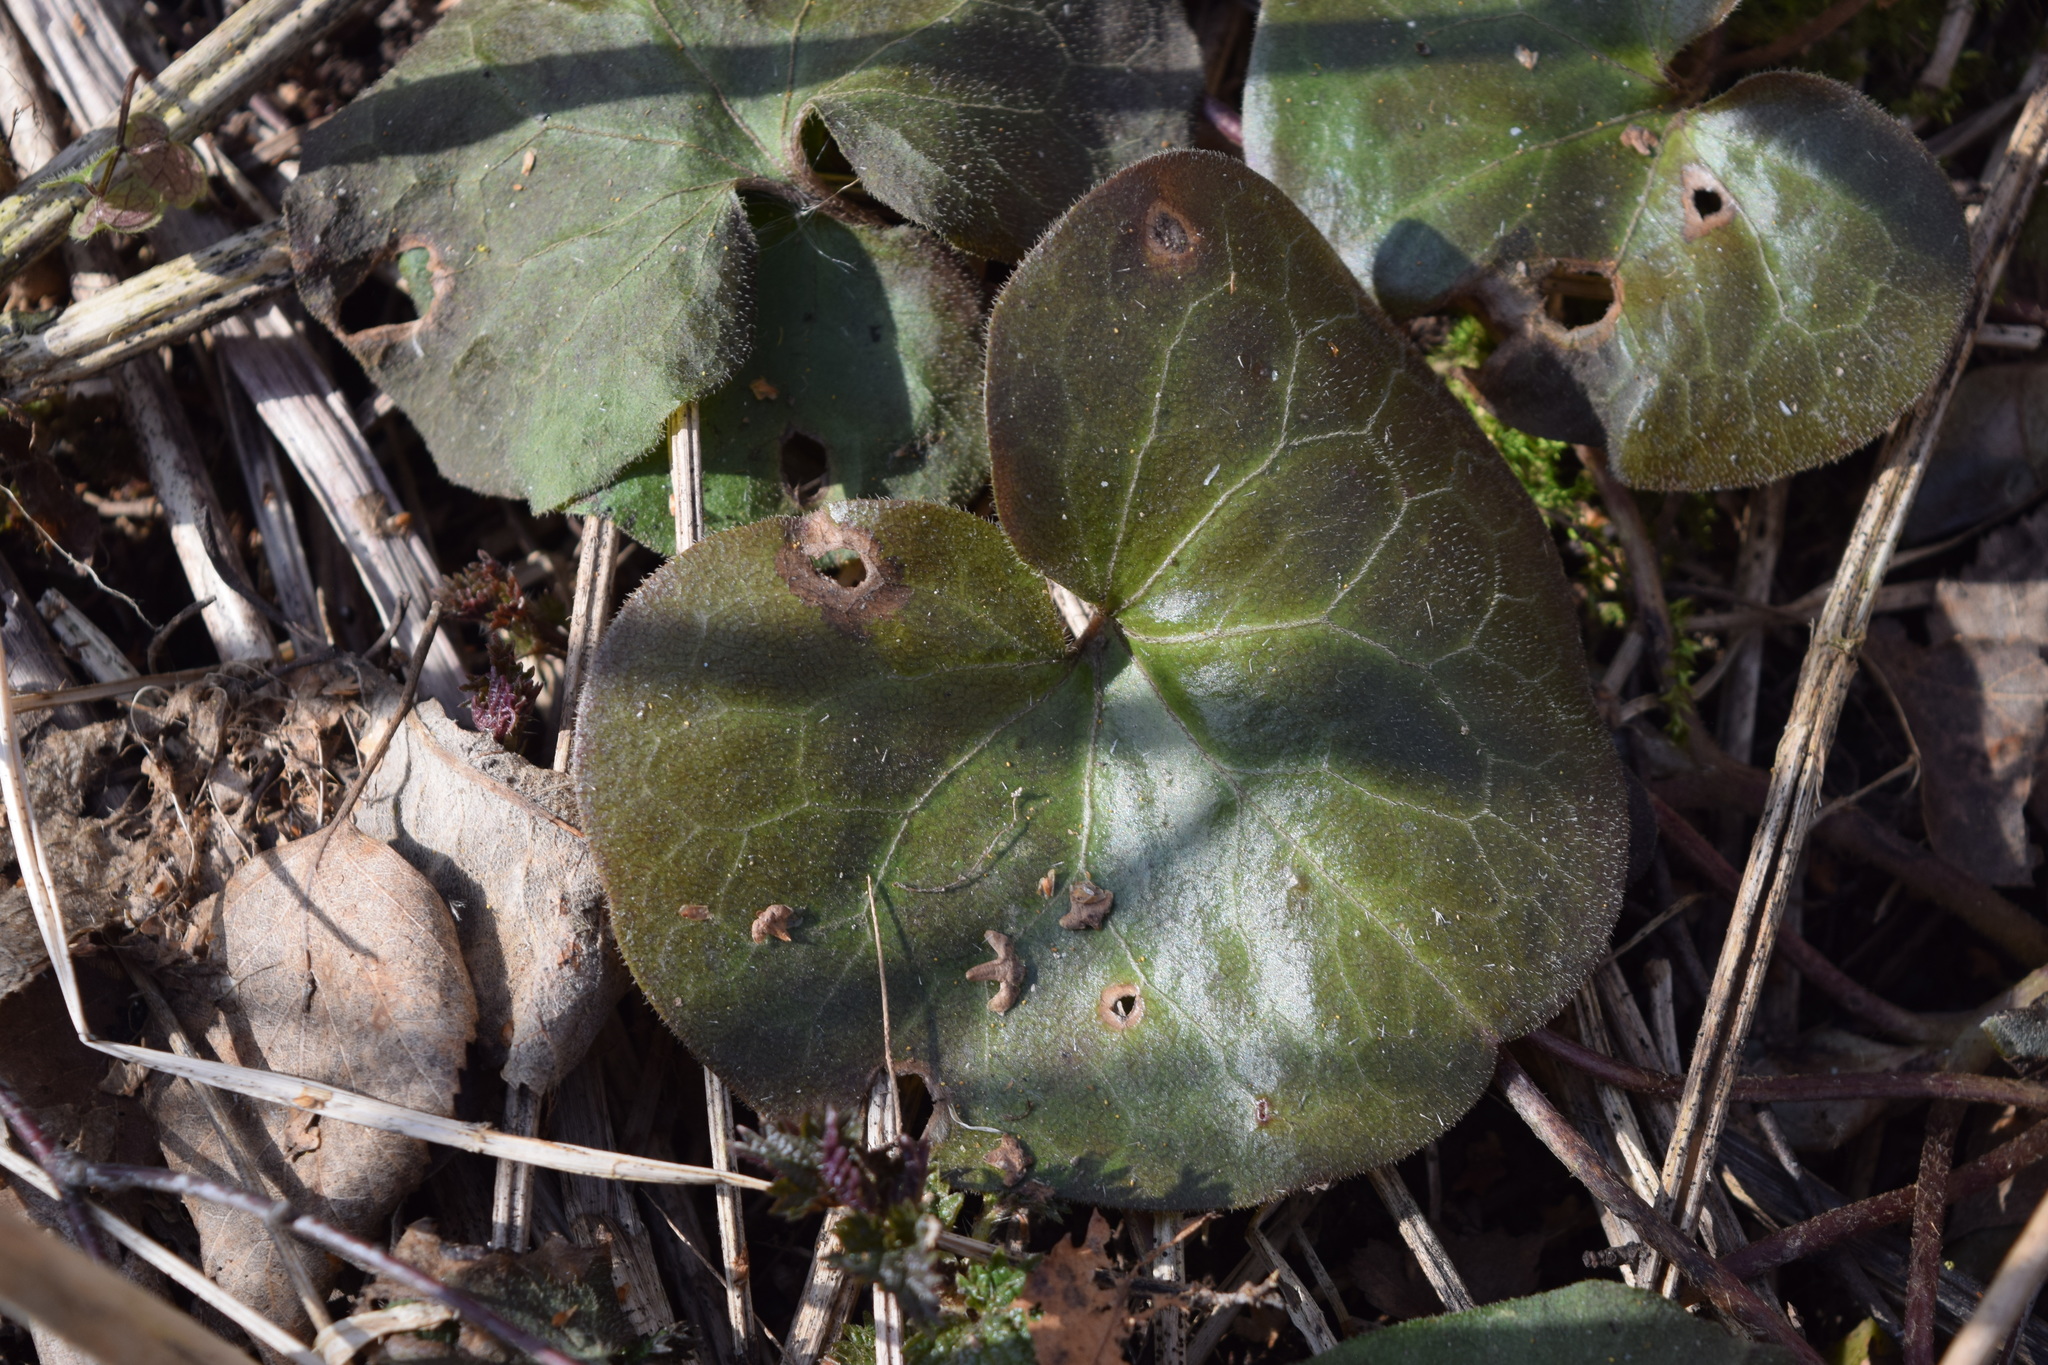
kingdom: Plantae
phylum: Tracheophyta
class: Magnoliopsida
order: Piperales
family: Aristolochiaceae
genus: Asarum
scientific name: Asarum europaeum
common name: Asarabacca
